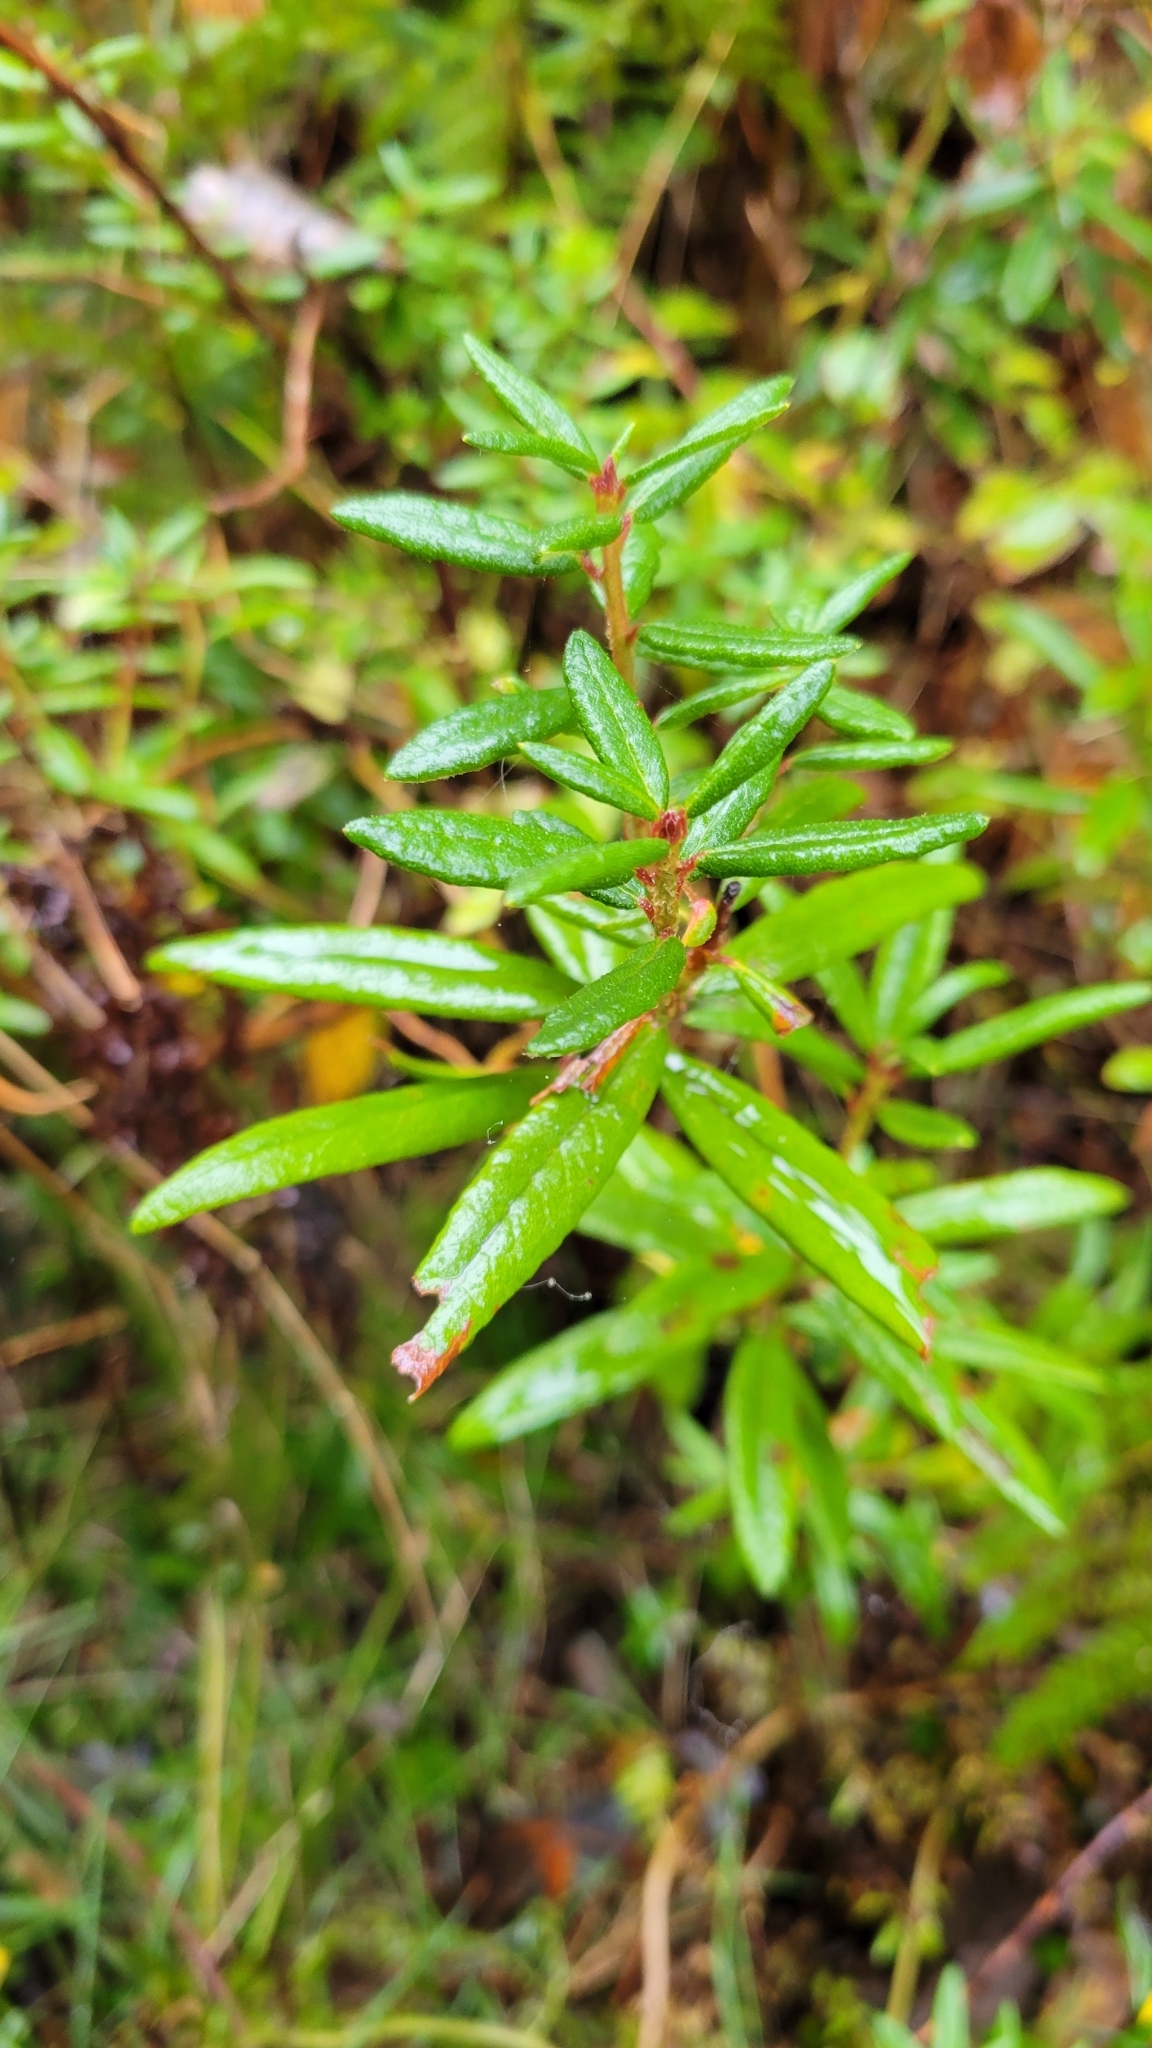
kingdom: Plantae
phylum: Tracheophyta
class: Magnoliopsida
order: Ericales
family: Ericaceae
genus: Rhododendron
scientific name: Rhododendron groenlandicum
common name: Bog labrador tea
